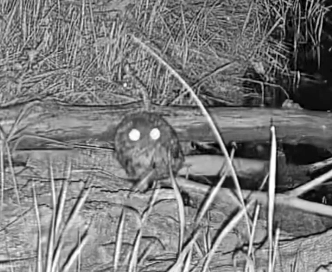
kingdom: Animalia
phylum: Chordata
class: Aves
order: Strigiformes
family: Strigidae
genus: Megascops
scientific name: Megascops asio
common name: Eastern screech-owl
